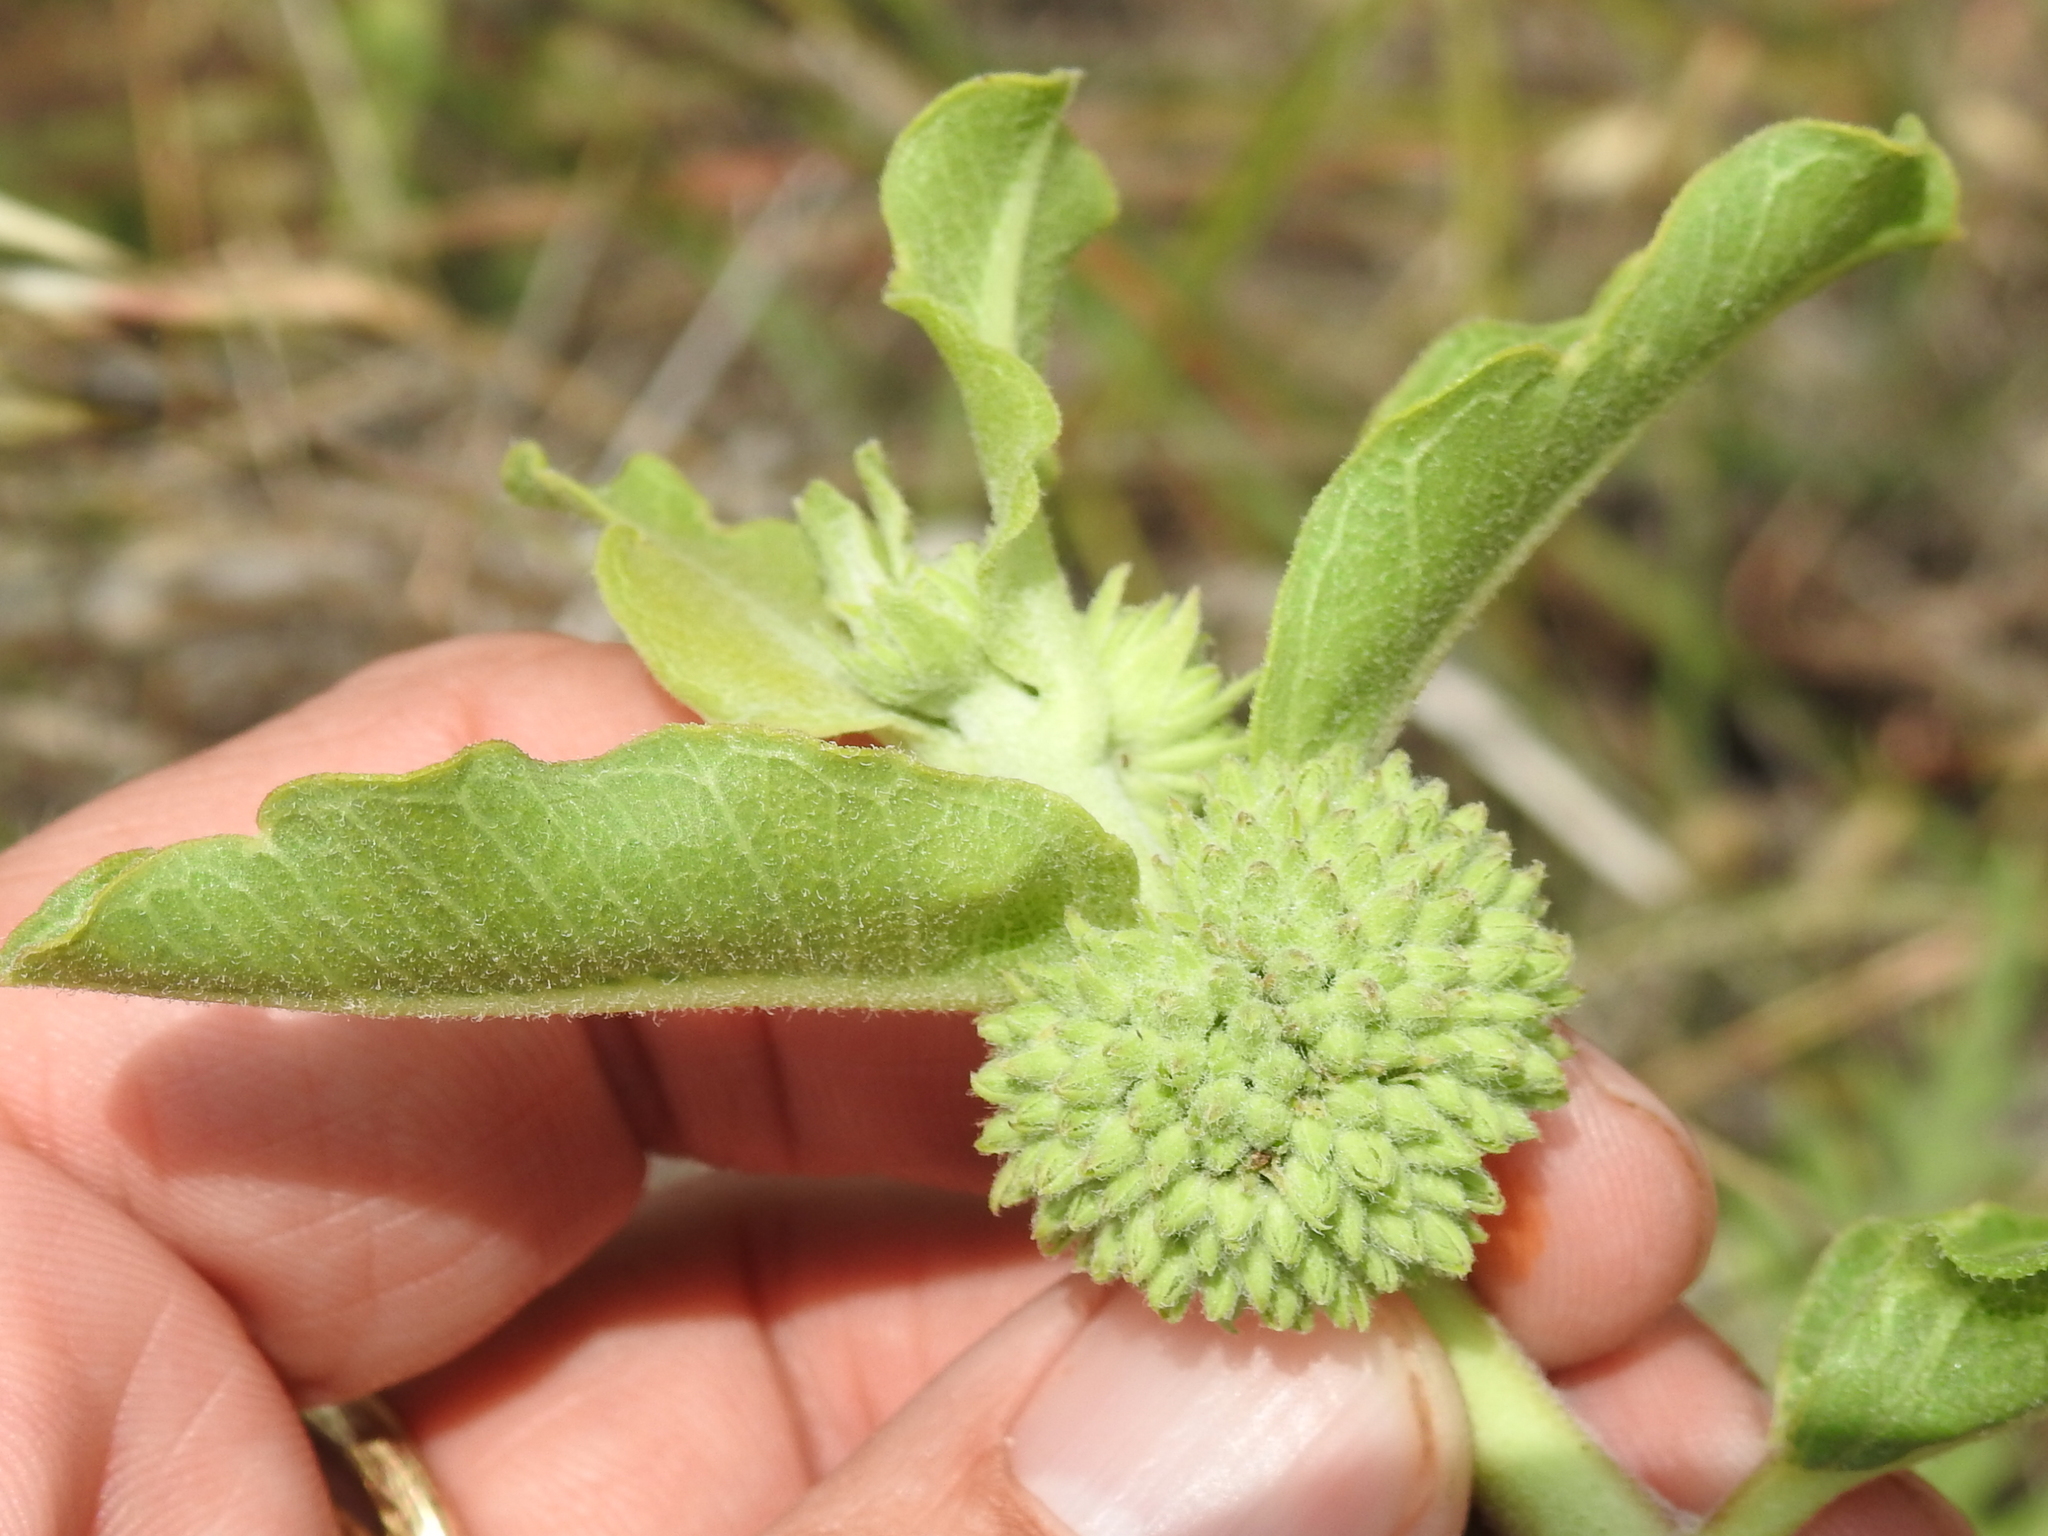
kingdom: Plantae
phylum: Tracheophyta
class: Magnoliopsida
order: Gentianales
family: Apocynaceae
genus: Asclepias
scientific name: Asclepias viridiflora
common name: Green comet milkweed
